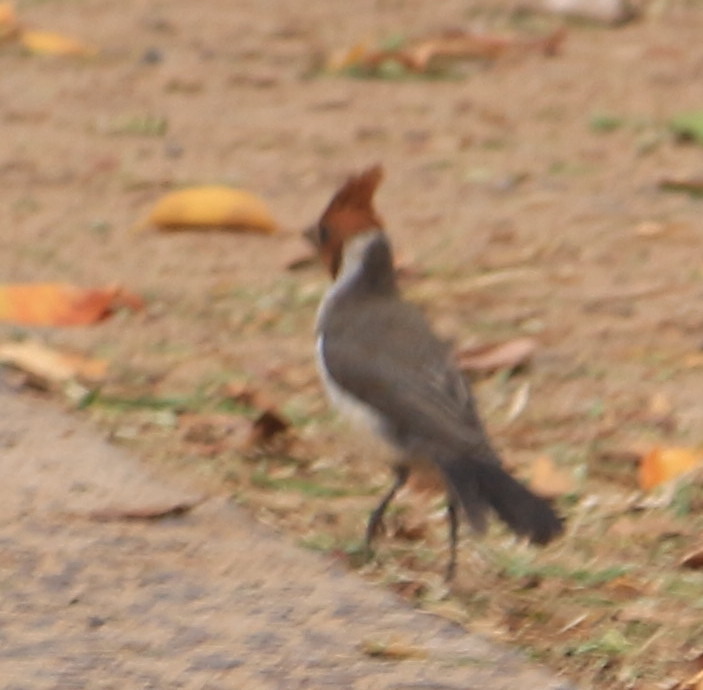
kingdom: Animalia
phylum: Chordata
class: Aves
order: Passeriformes
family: Thraupidae
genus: Paroaria
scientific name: Paroaria coronata
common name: Red-crested cardinal
